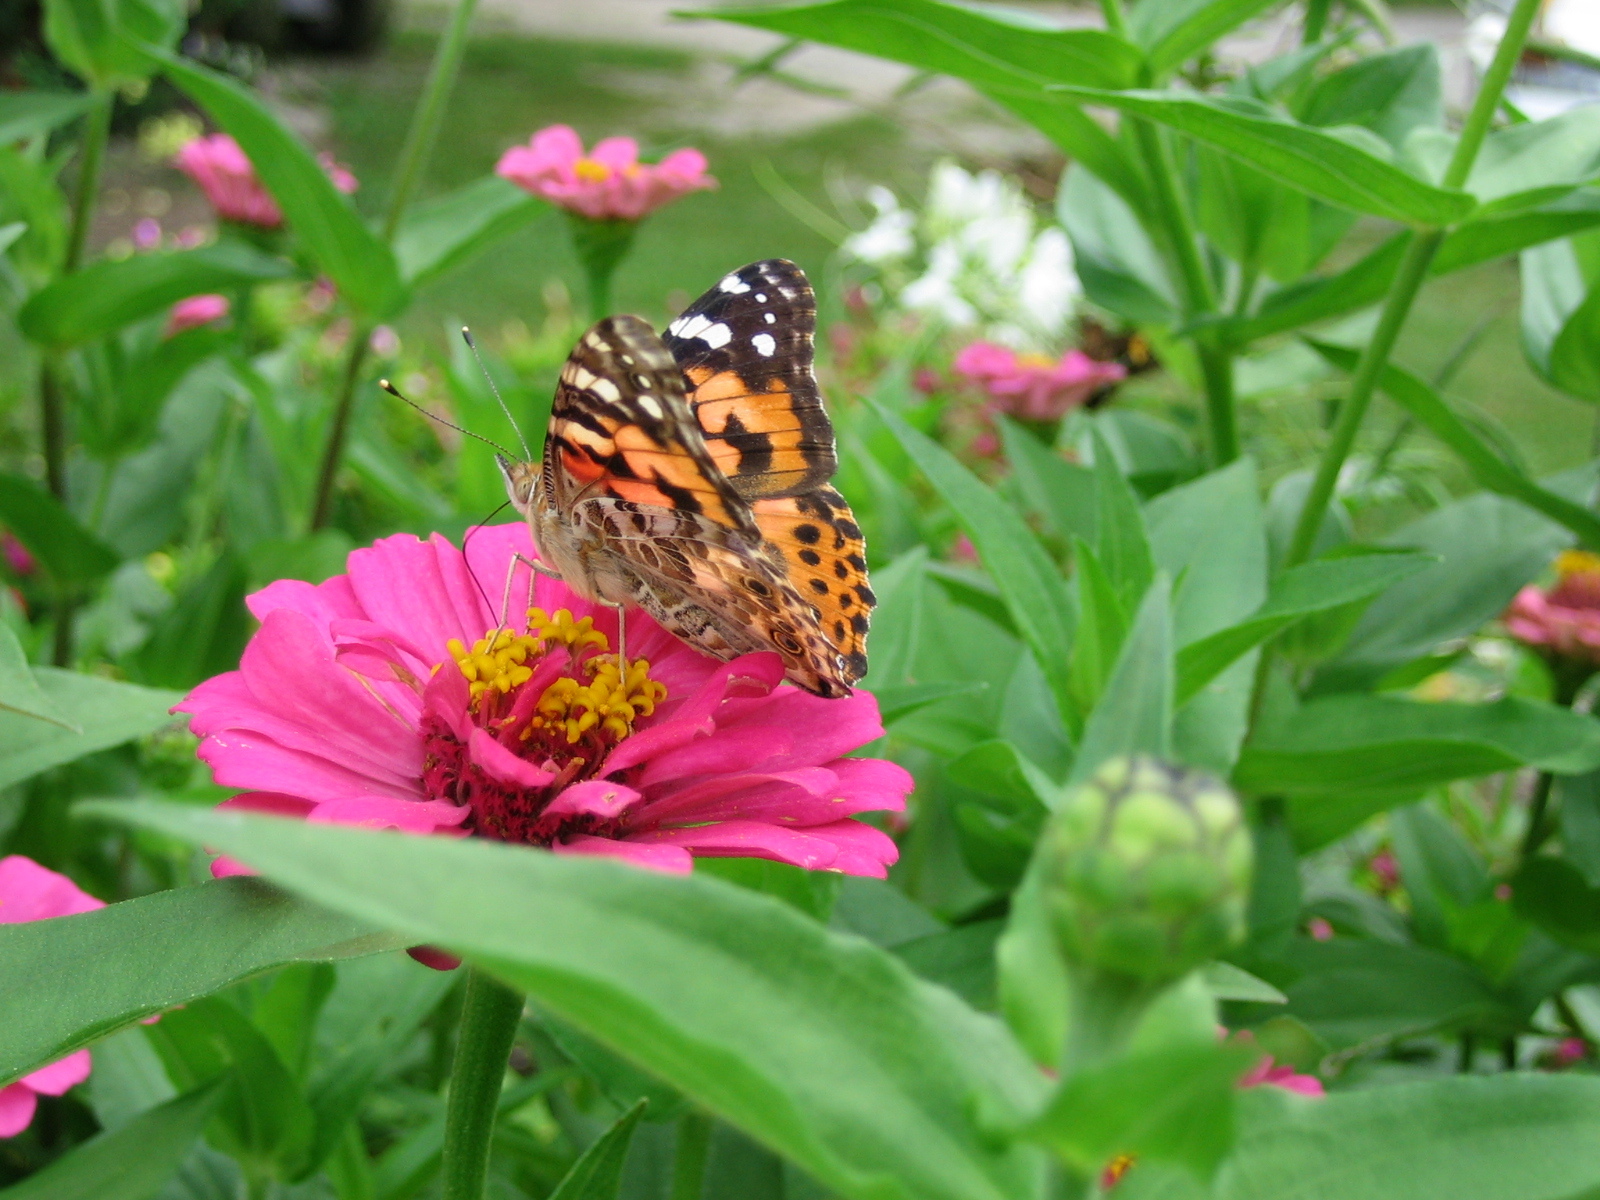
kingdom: Animalia
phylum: Arthropoda
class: Insecta
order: Lepidoptera
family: Nymphalidae
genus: Vanessa
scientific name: Vanessa cardui
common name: Painted lady
